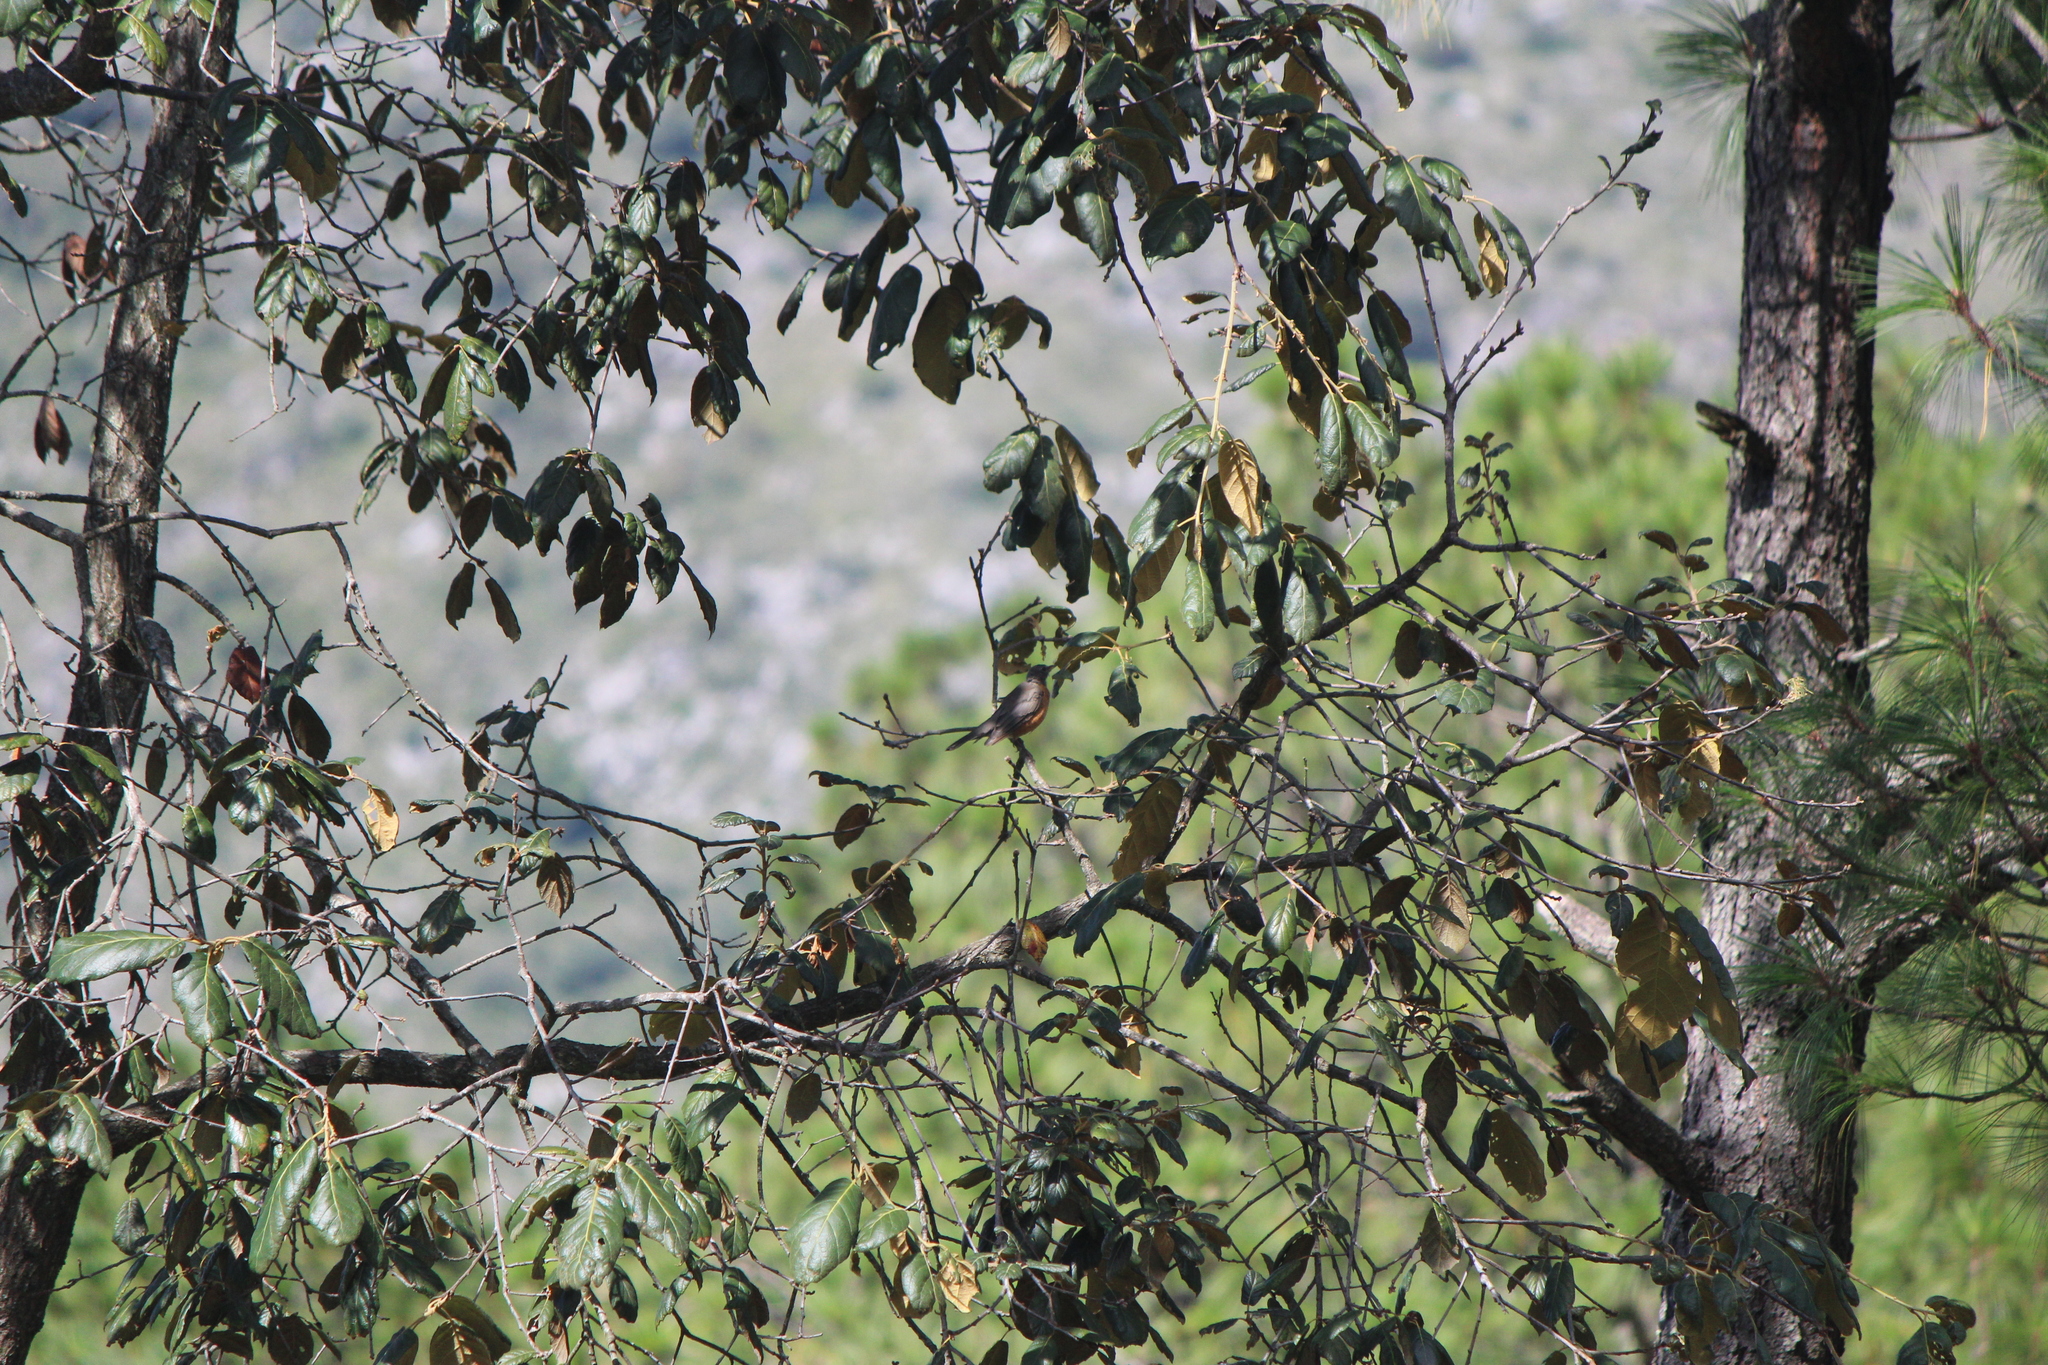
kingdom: Animalia
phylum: Chordata
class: Aves
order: Passeriformes
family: Turdidae
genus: Turdus
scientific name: Turdus migratorius
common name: American robin
